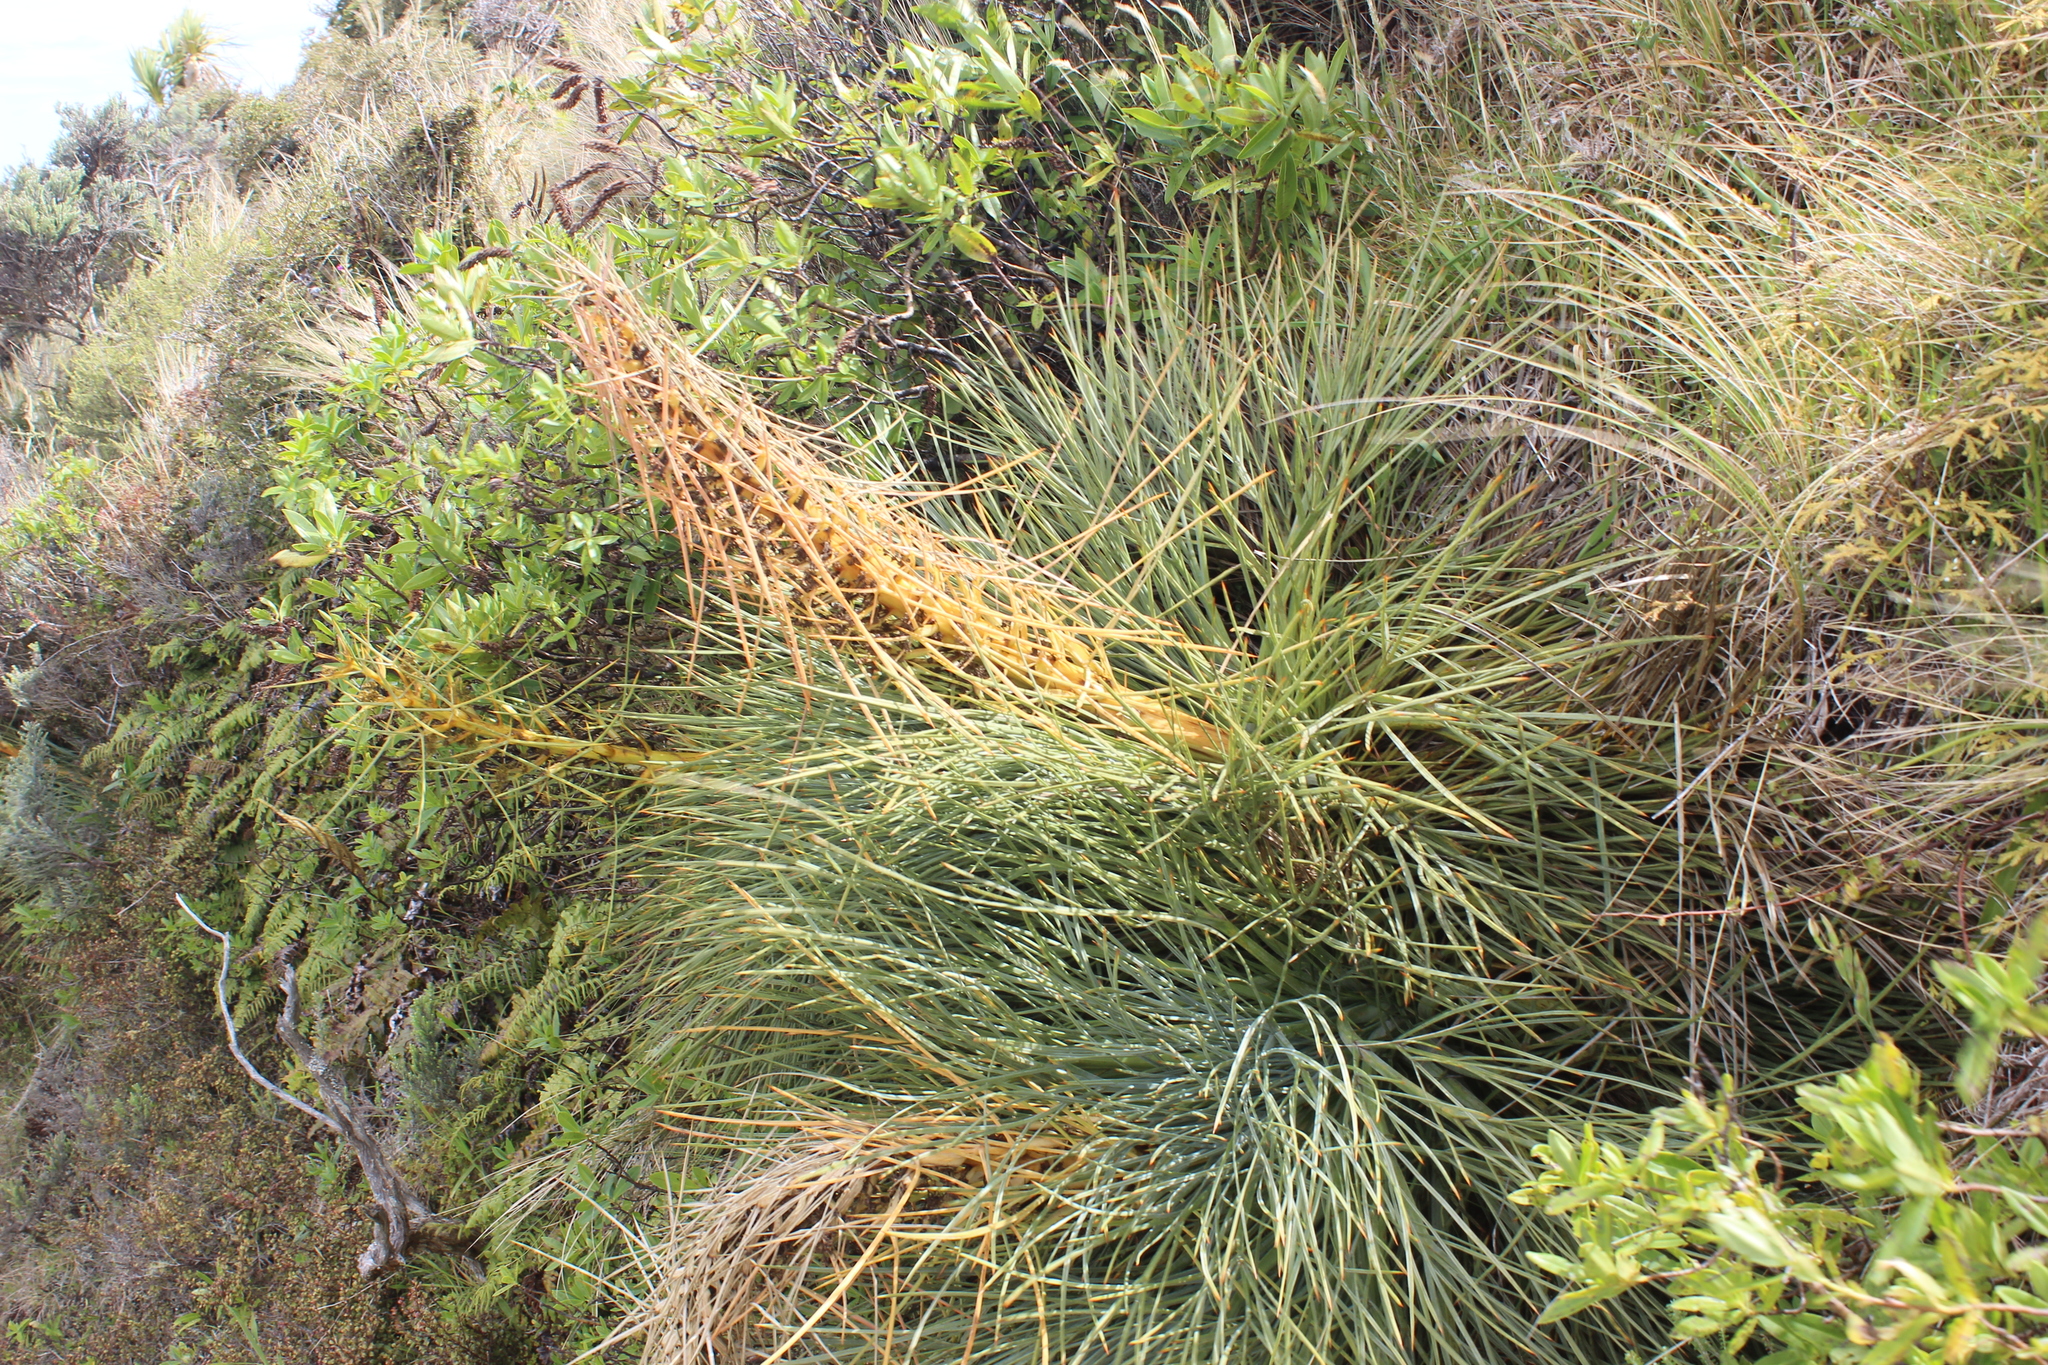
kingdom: Plantae
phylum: Tracheophyta
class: Magnoliopsida
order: Apiales
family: Apiaceae
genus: Aciphylla
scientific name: Aciphylla squarrosa
